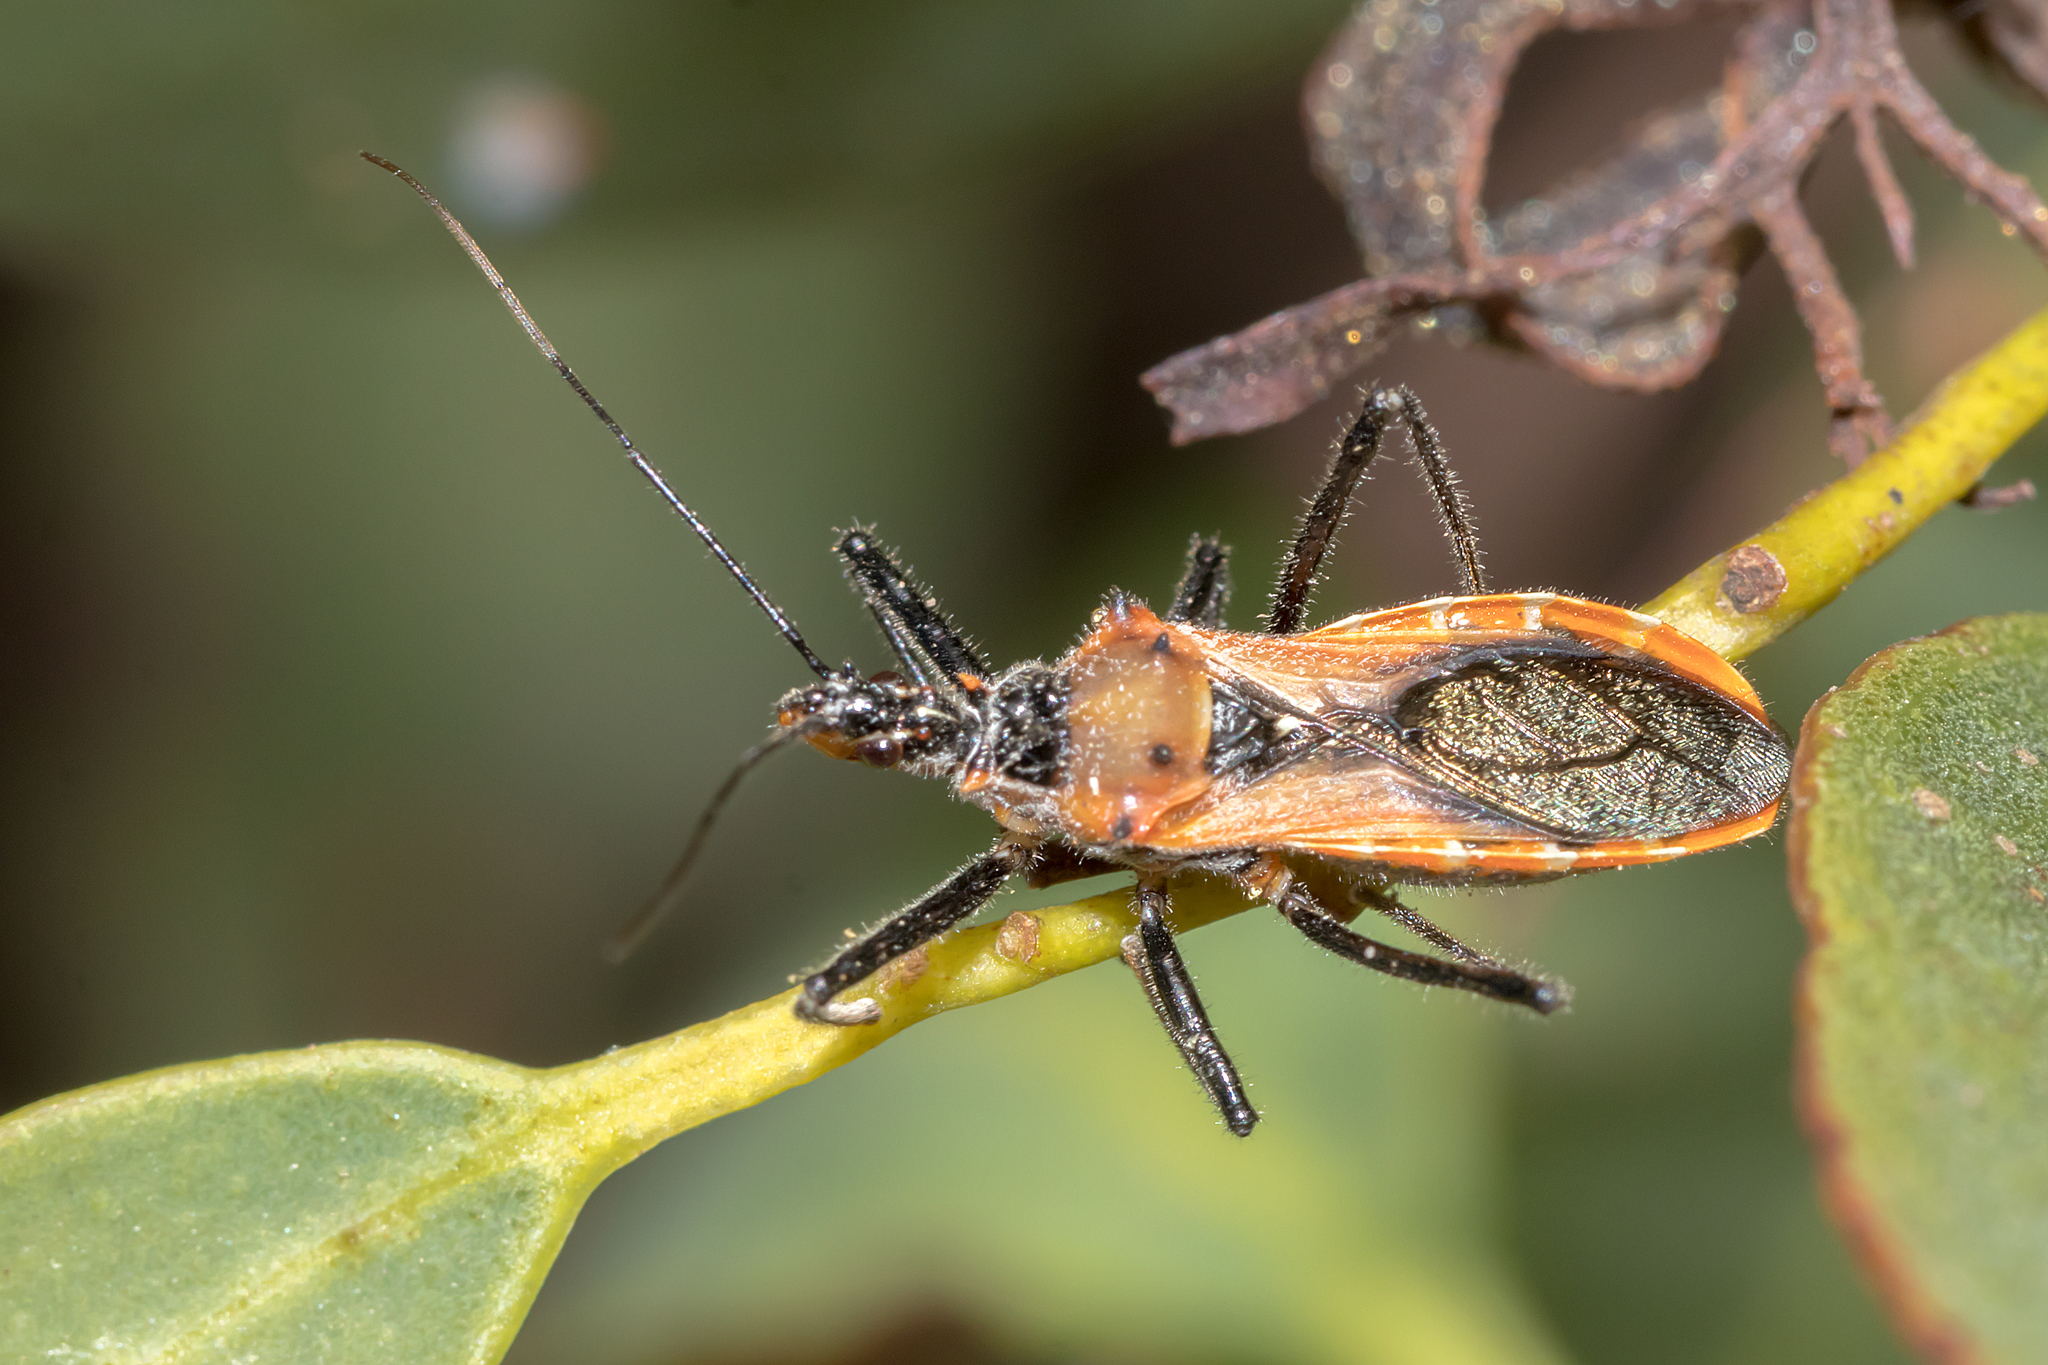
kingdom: Animalia
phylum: Arthropoda
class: Insecta
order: Hemiptera
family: Reduviidae
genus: Gminatus
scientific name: Gminatus australis
